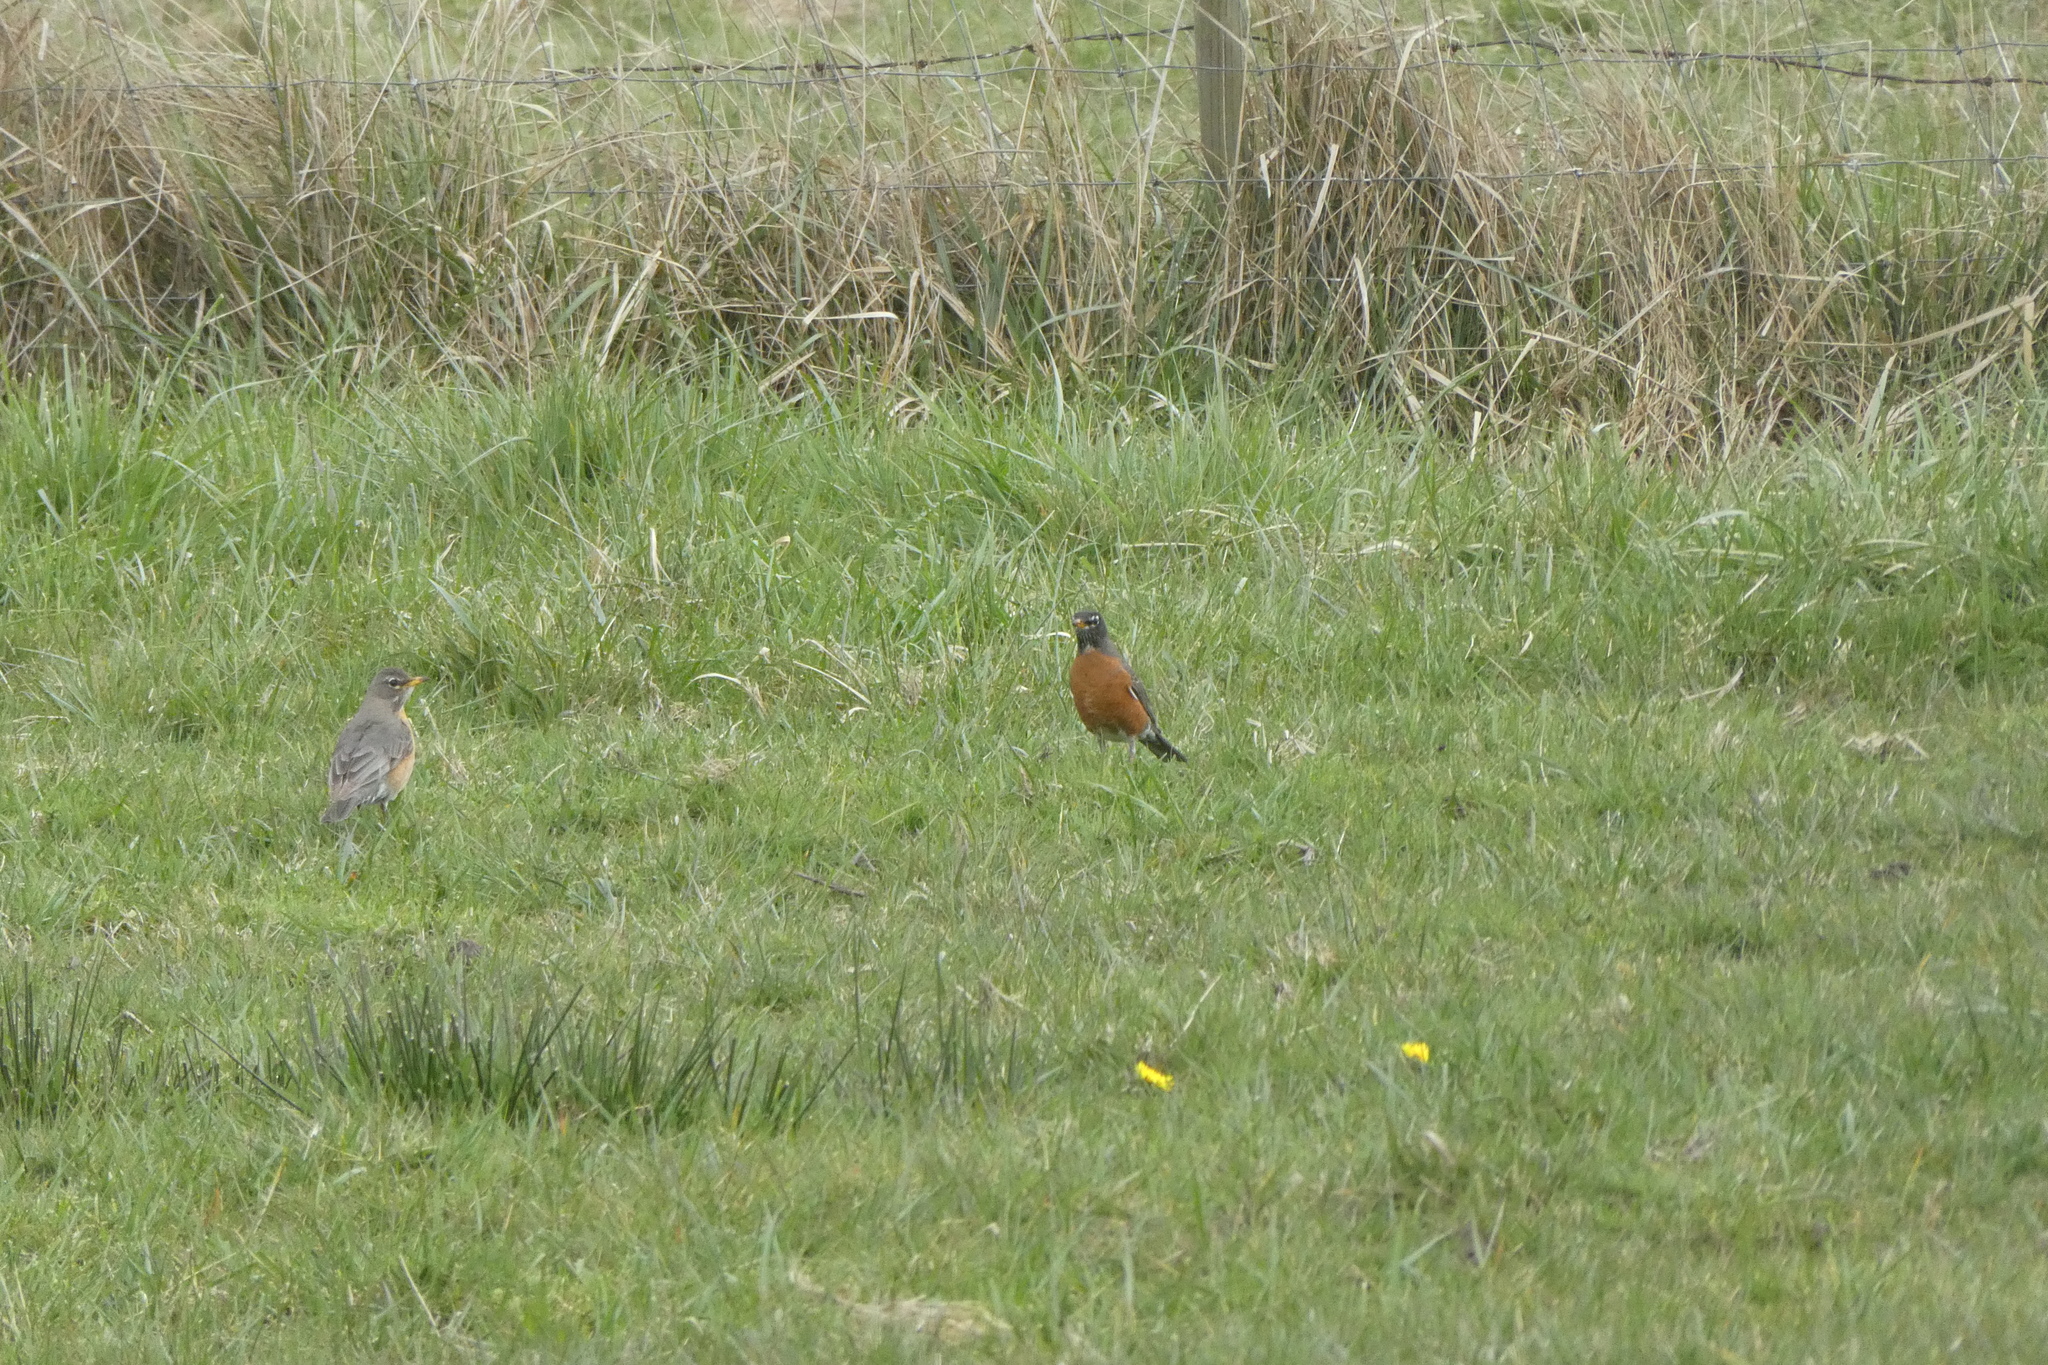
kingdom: Animalia
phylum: Chordata
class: Aves
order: Passeriformes
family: Turdidae
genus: Turdus
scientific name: Turdus migratorius
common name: American robin
